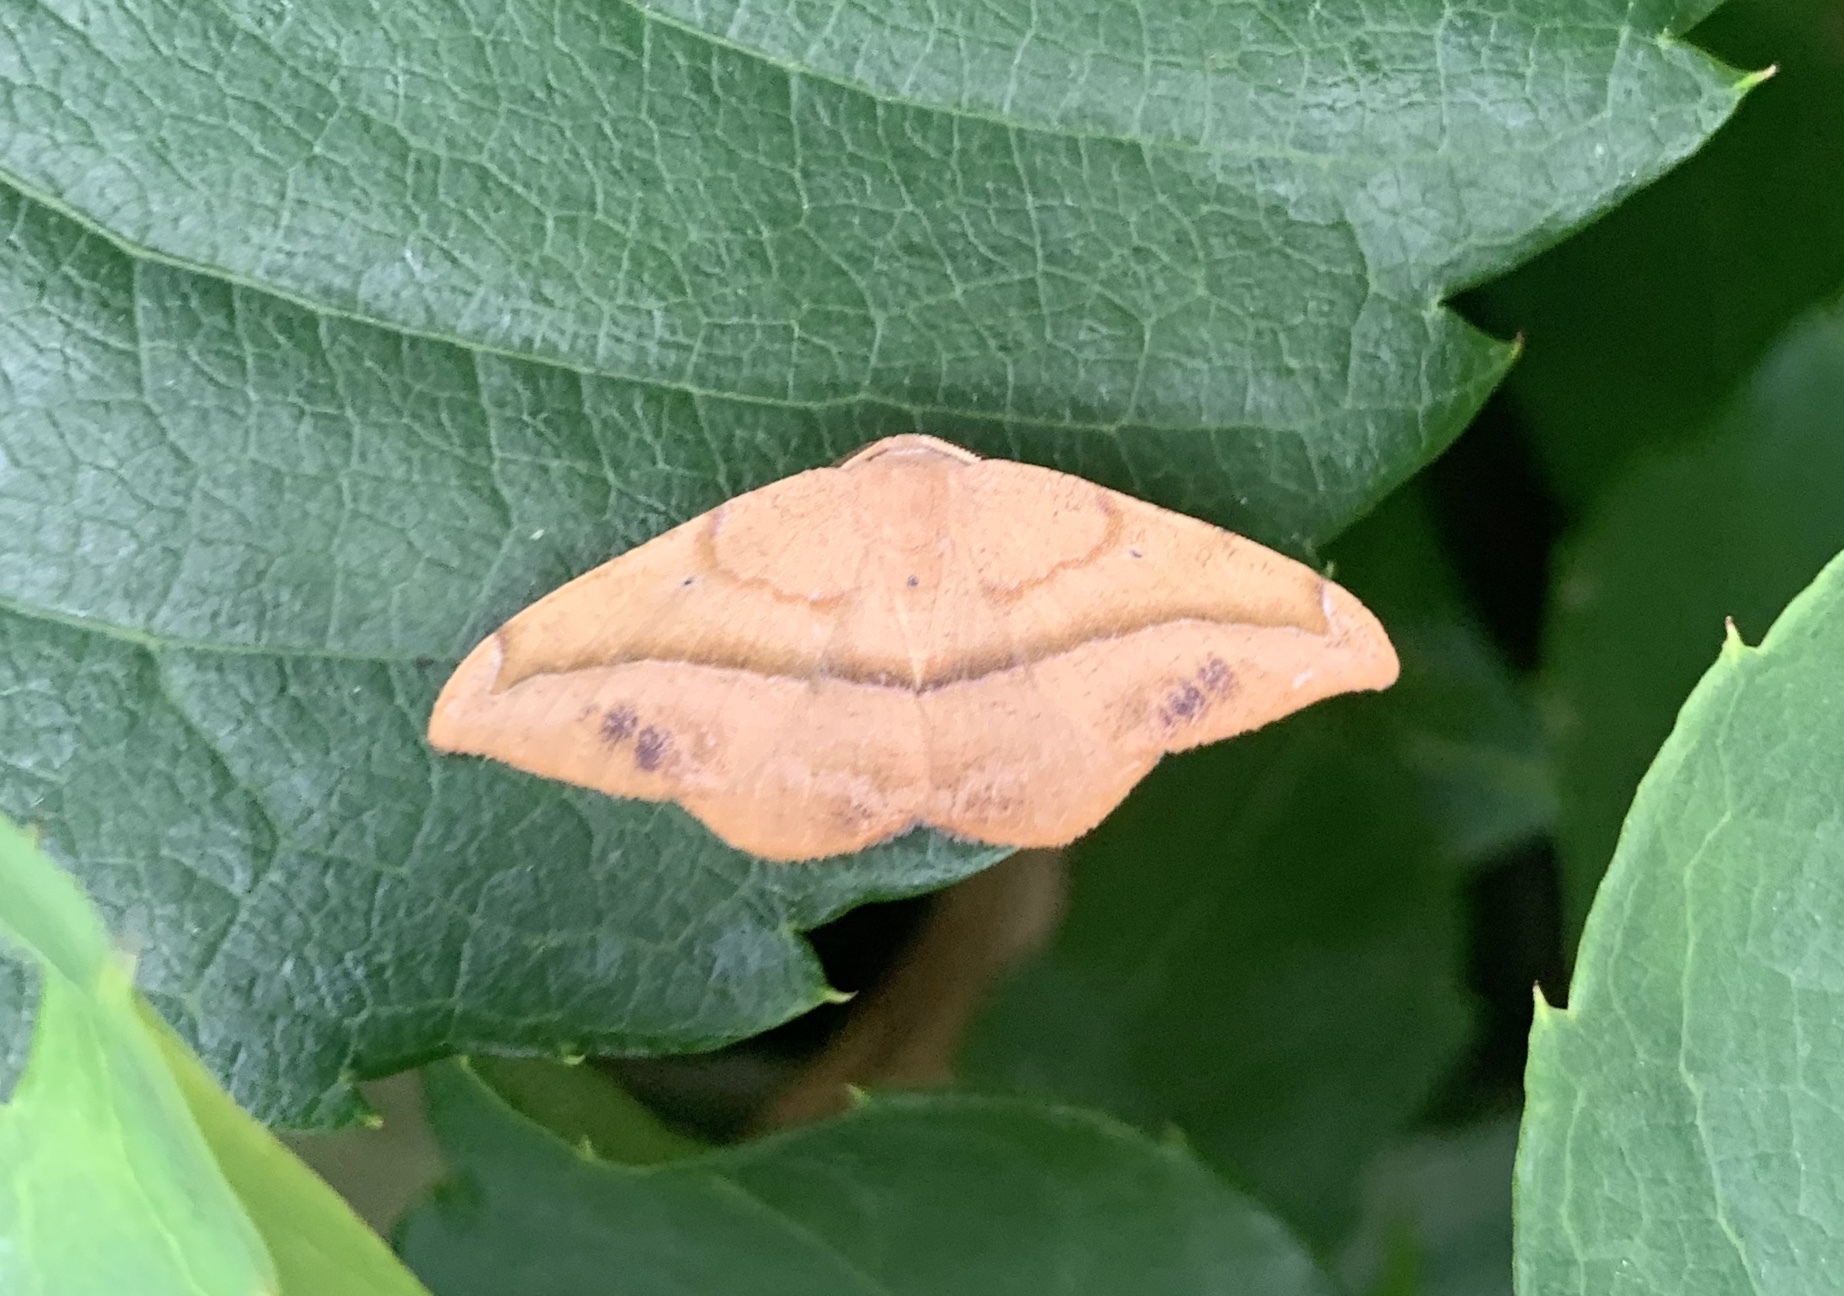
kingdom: Animalia
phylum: Arthropoda
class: Insecta
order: Lepidoptera
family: Geometridae
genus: Patalene
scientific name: Patalene olyzonaria
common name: Juniper geometer moth
